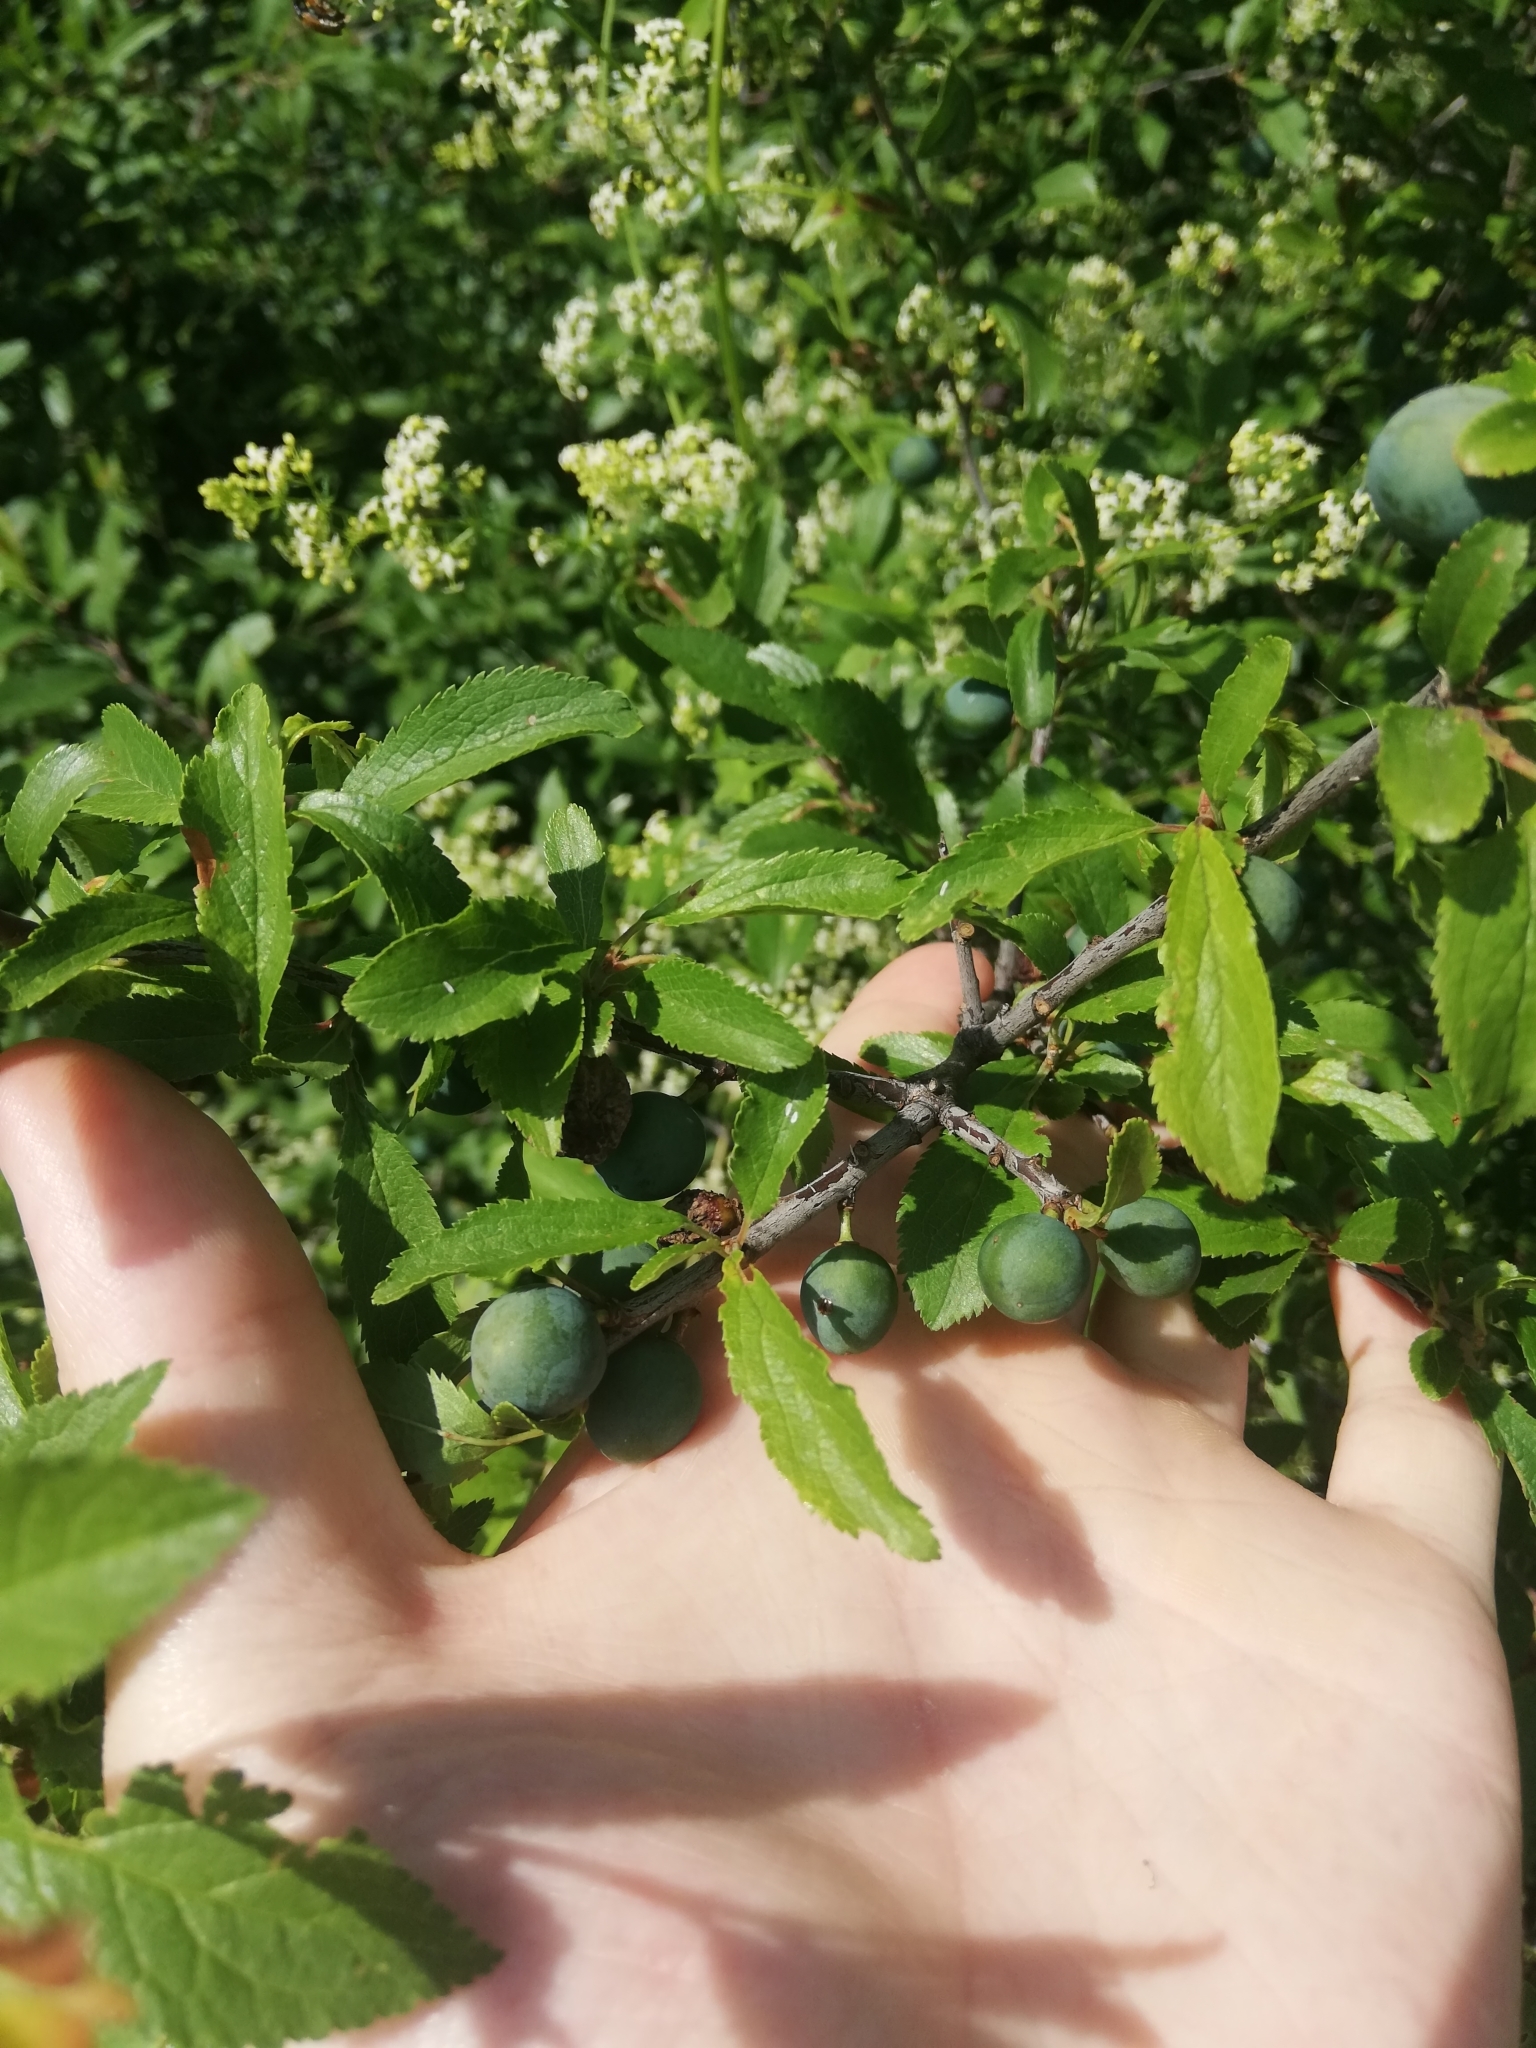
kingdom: Plantae
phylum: Tracheophyta
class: Magnoliopsida
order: Rosales
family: Rosaceae
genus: Prunus
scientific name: Prunus spinosa
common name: Blackthorn
